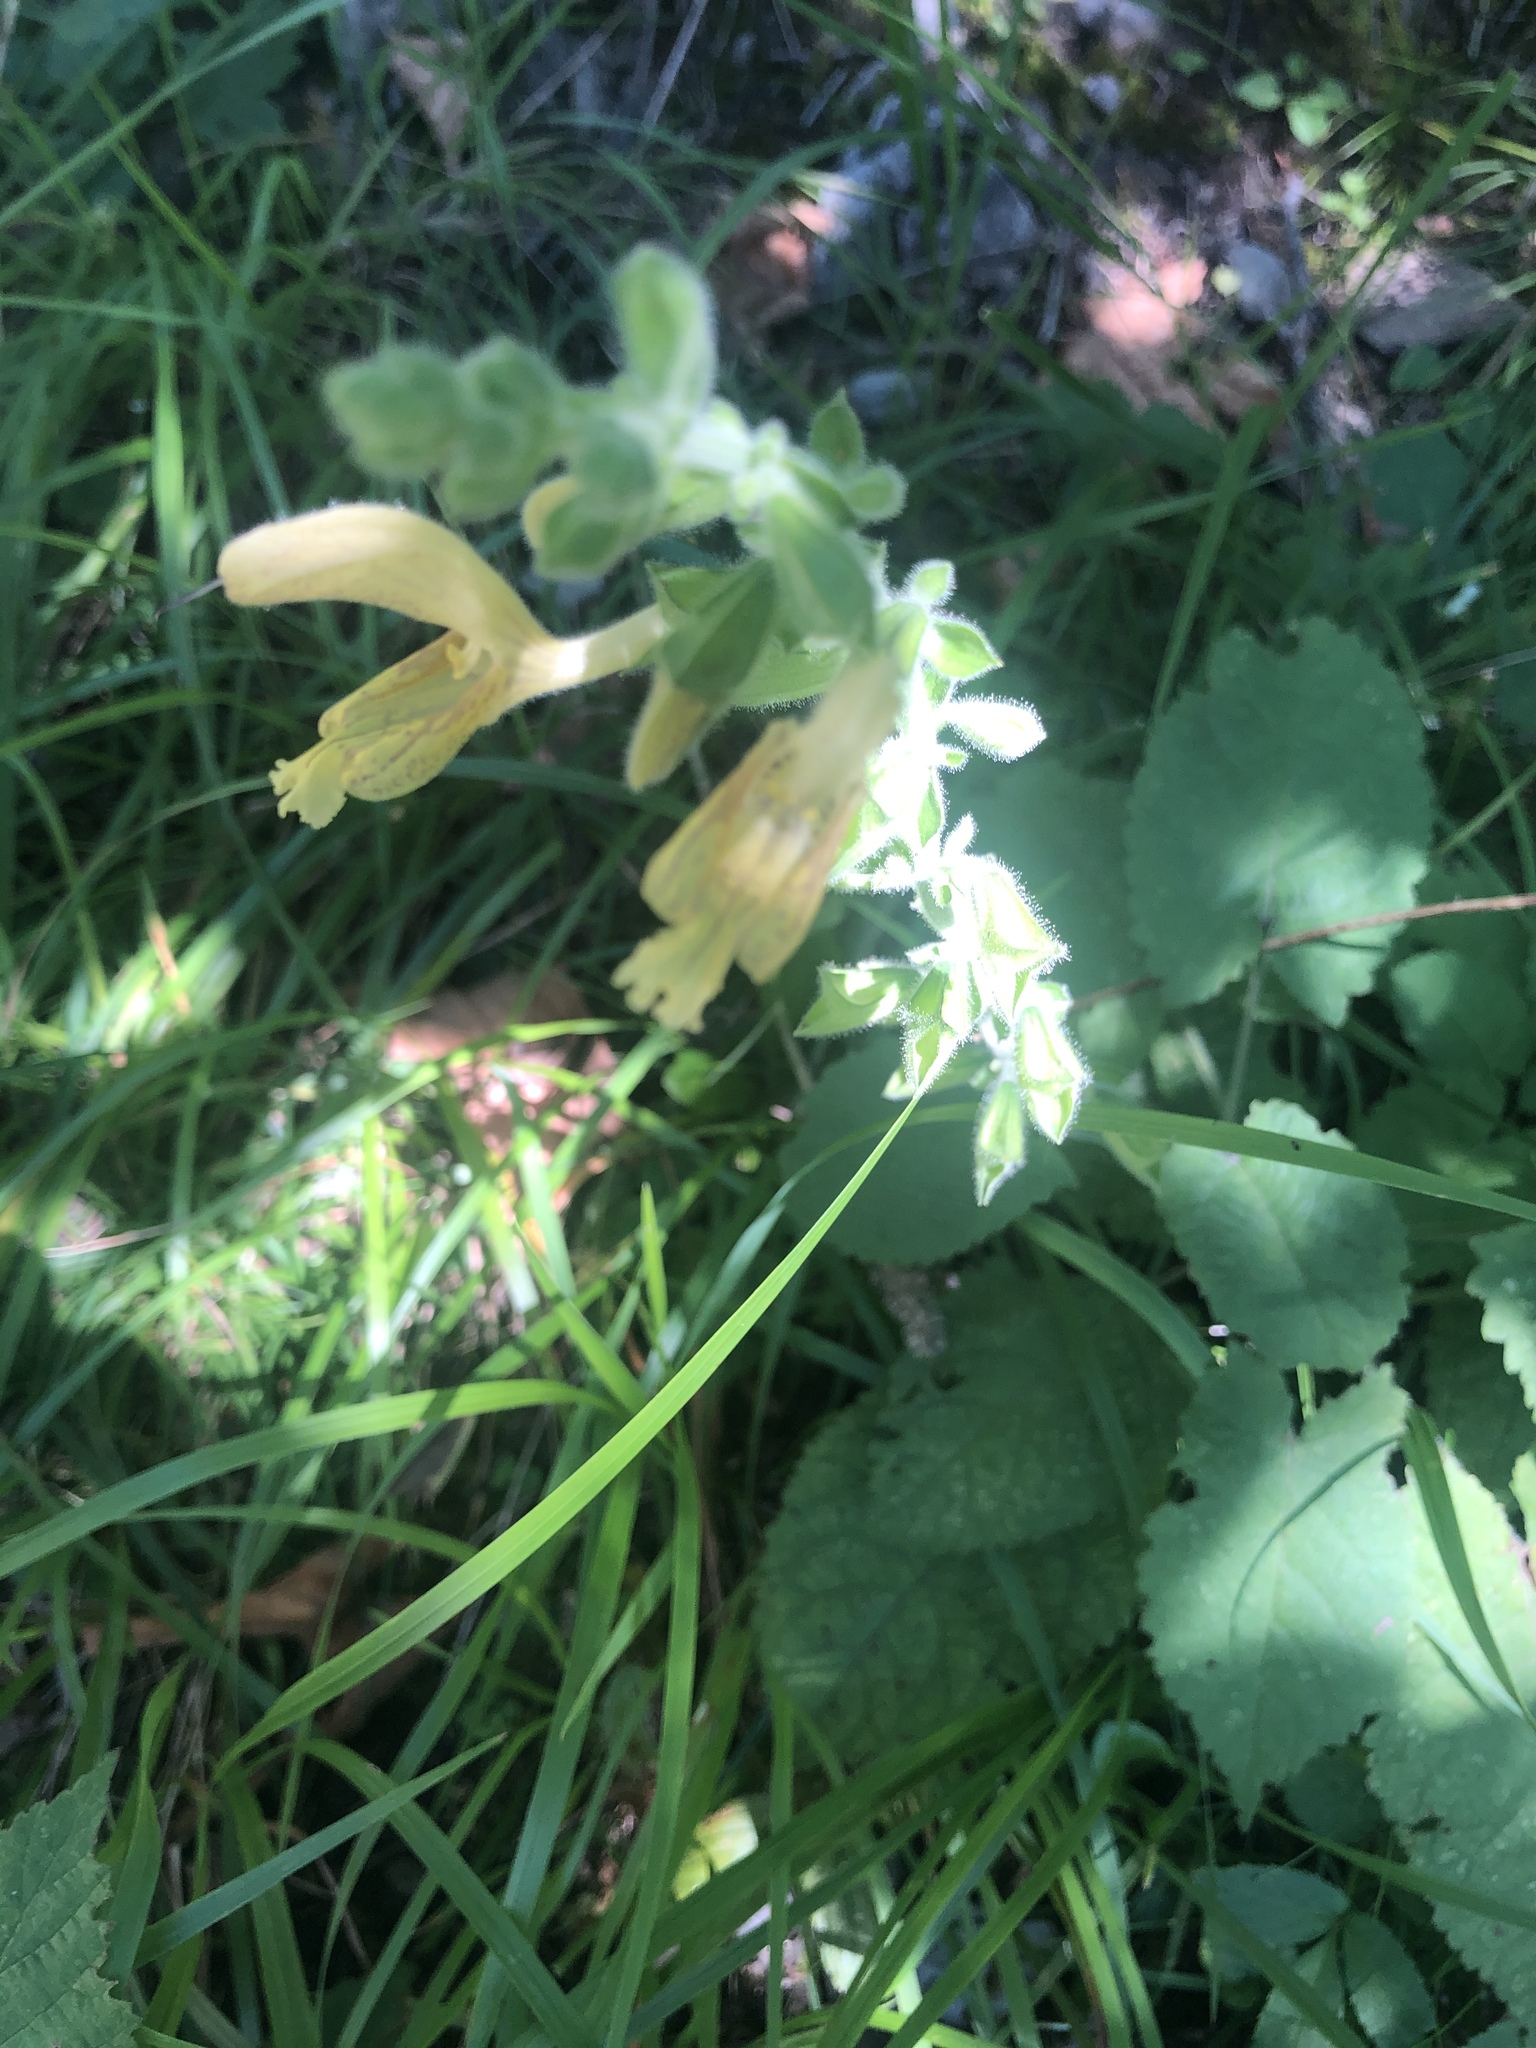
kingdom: Plantae
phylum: Tracheophyta
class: Magnoliopsida
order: Lamiales
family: Lamiaceae
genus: Salvia
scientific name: Salvia glutinosa
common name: Sticky clary
